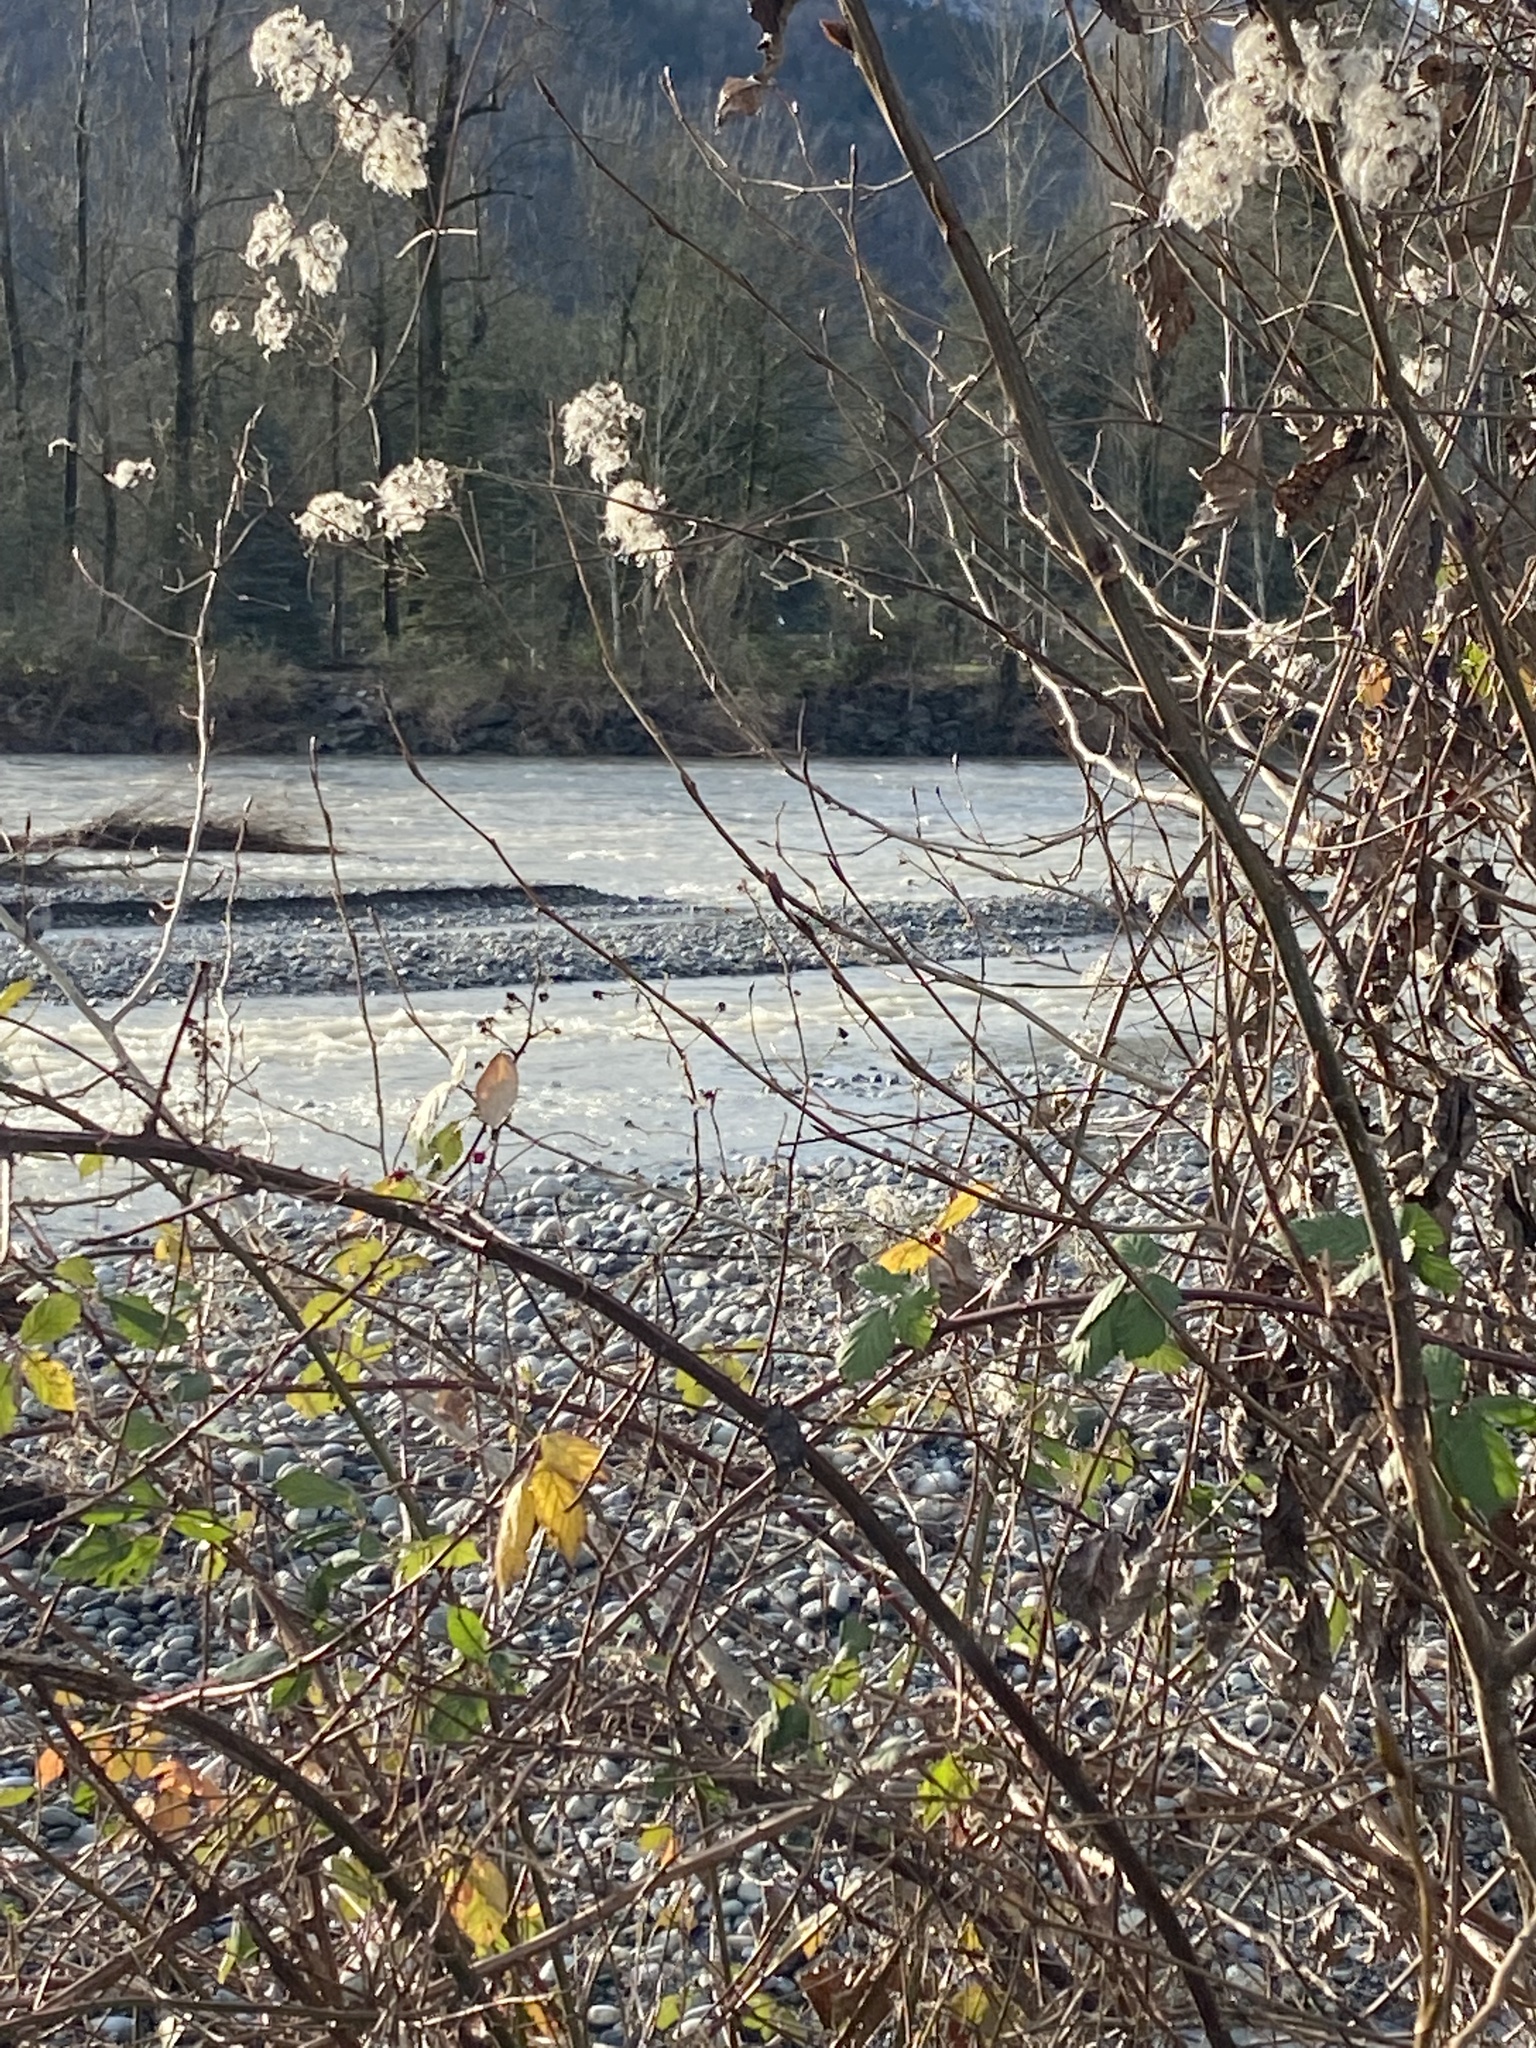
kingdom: Plantae
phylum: Tracheophyta
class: Magnoliopsida
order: Ranunculales
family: Ranunculaceae
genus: Clematis
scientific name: Clematis vitalba
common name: Evergreen clematis
